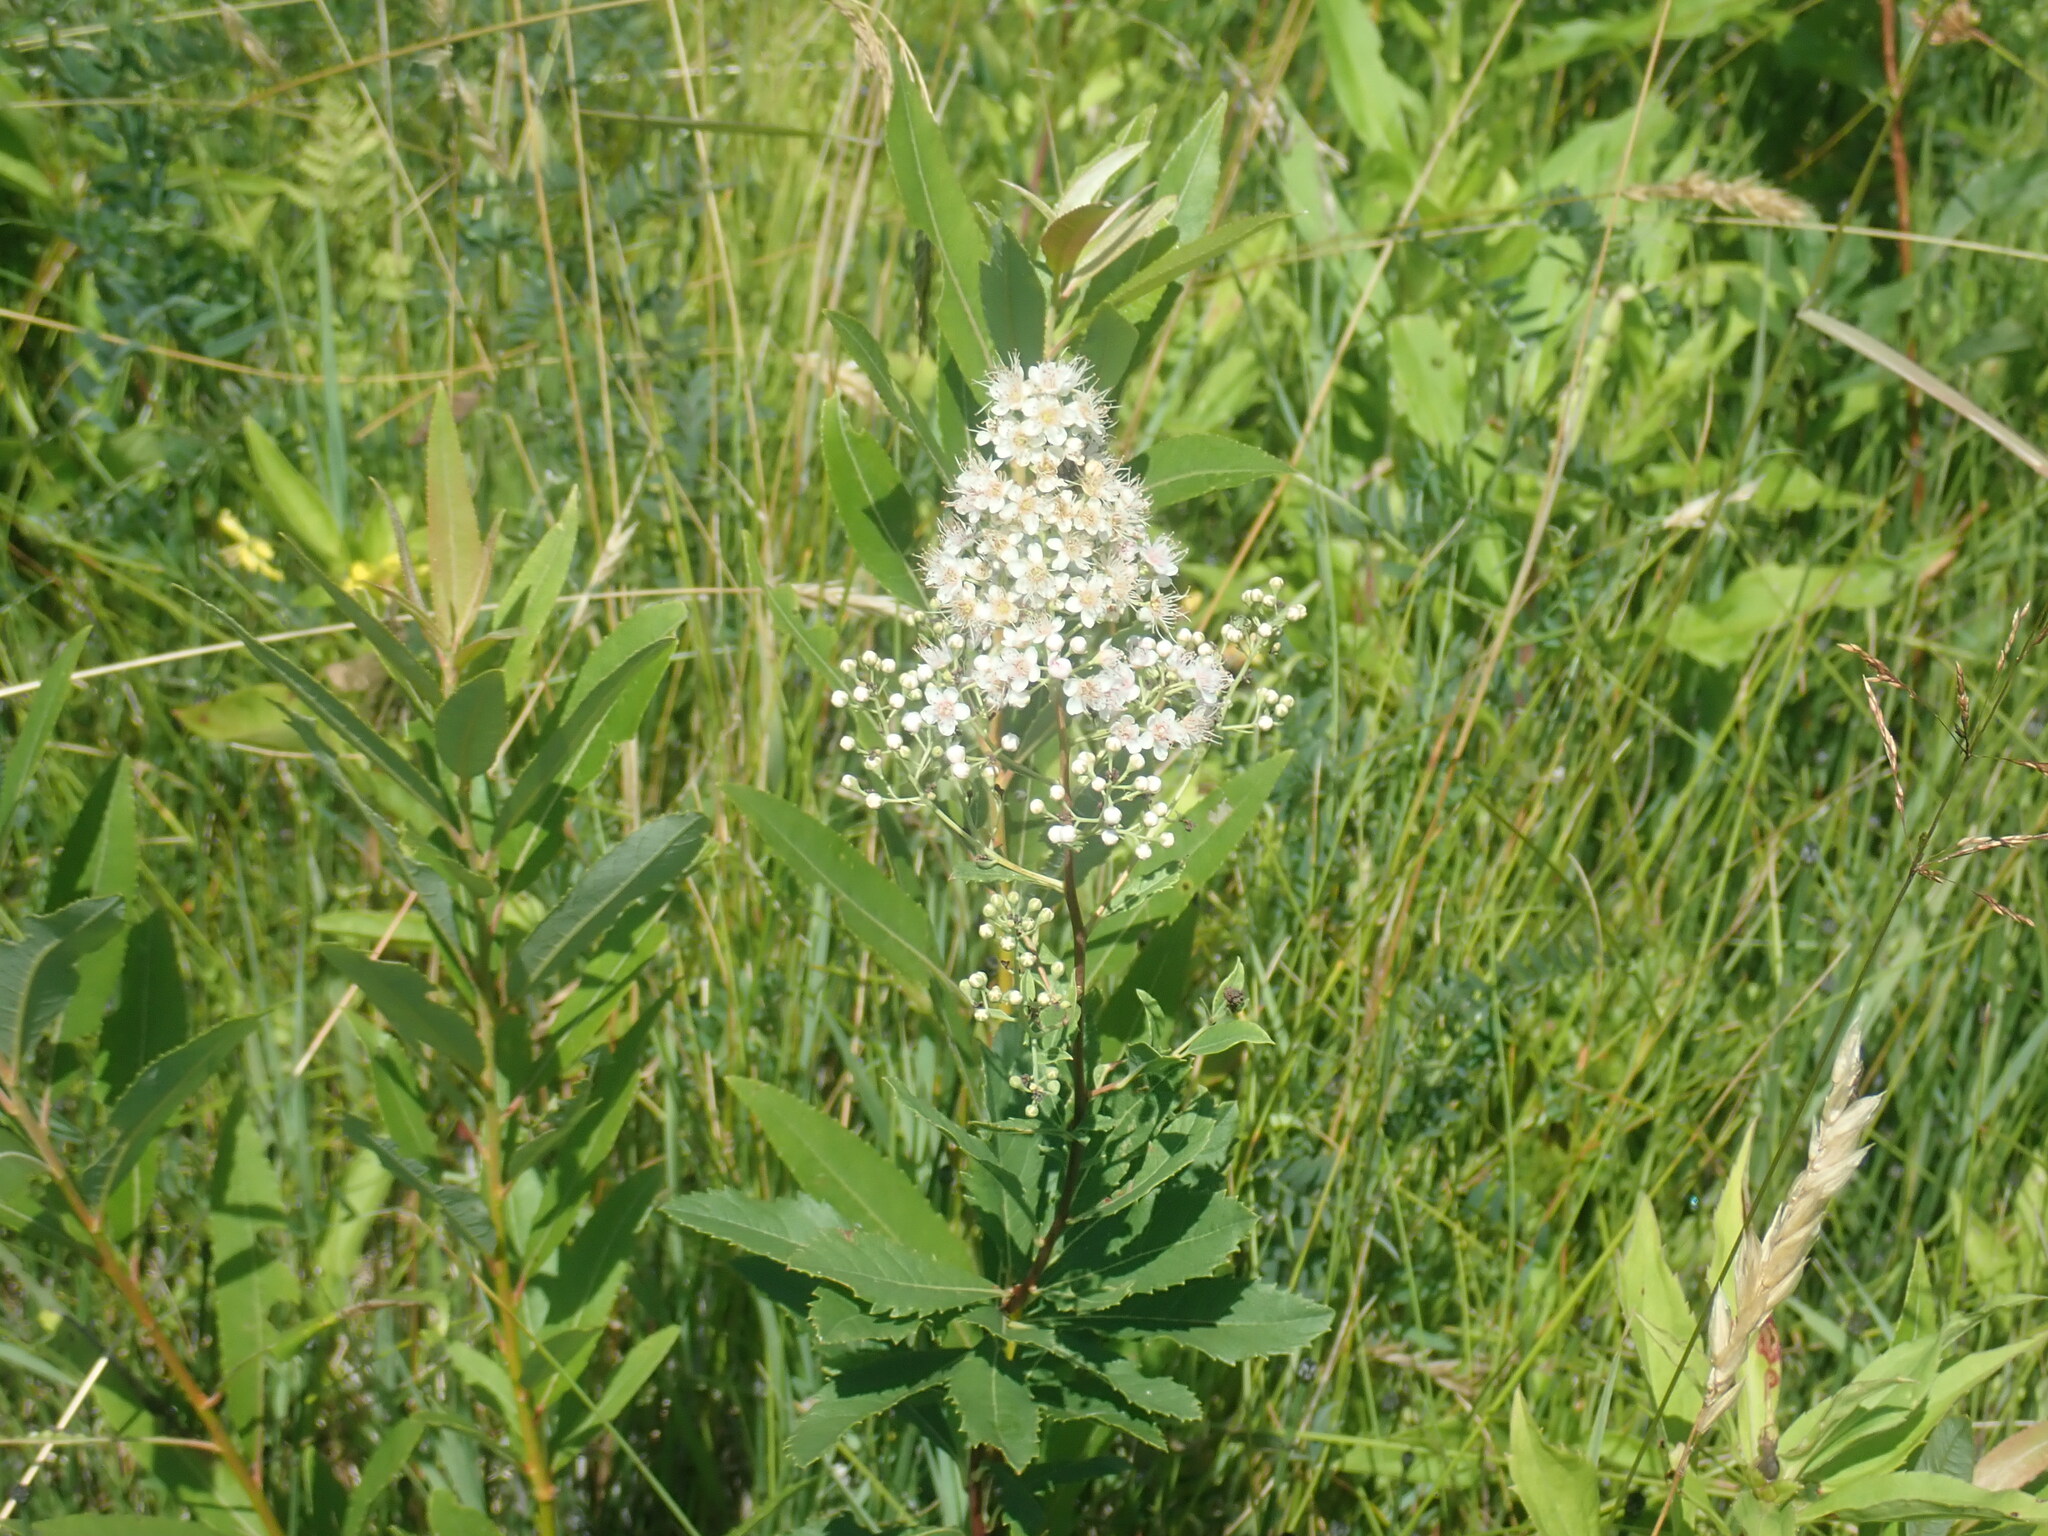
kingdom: Plantae
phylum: Tracheophyta
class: Magnoliopsida
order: Rosales
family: Rosaceae
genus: Spiraea
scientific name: Spiraea alba
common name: Pale bridewort
